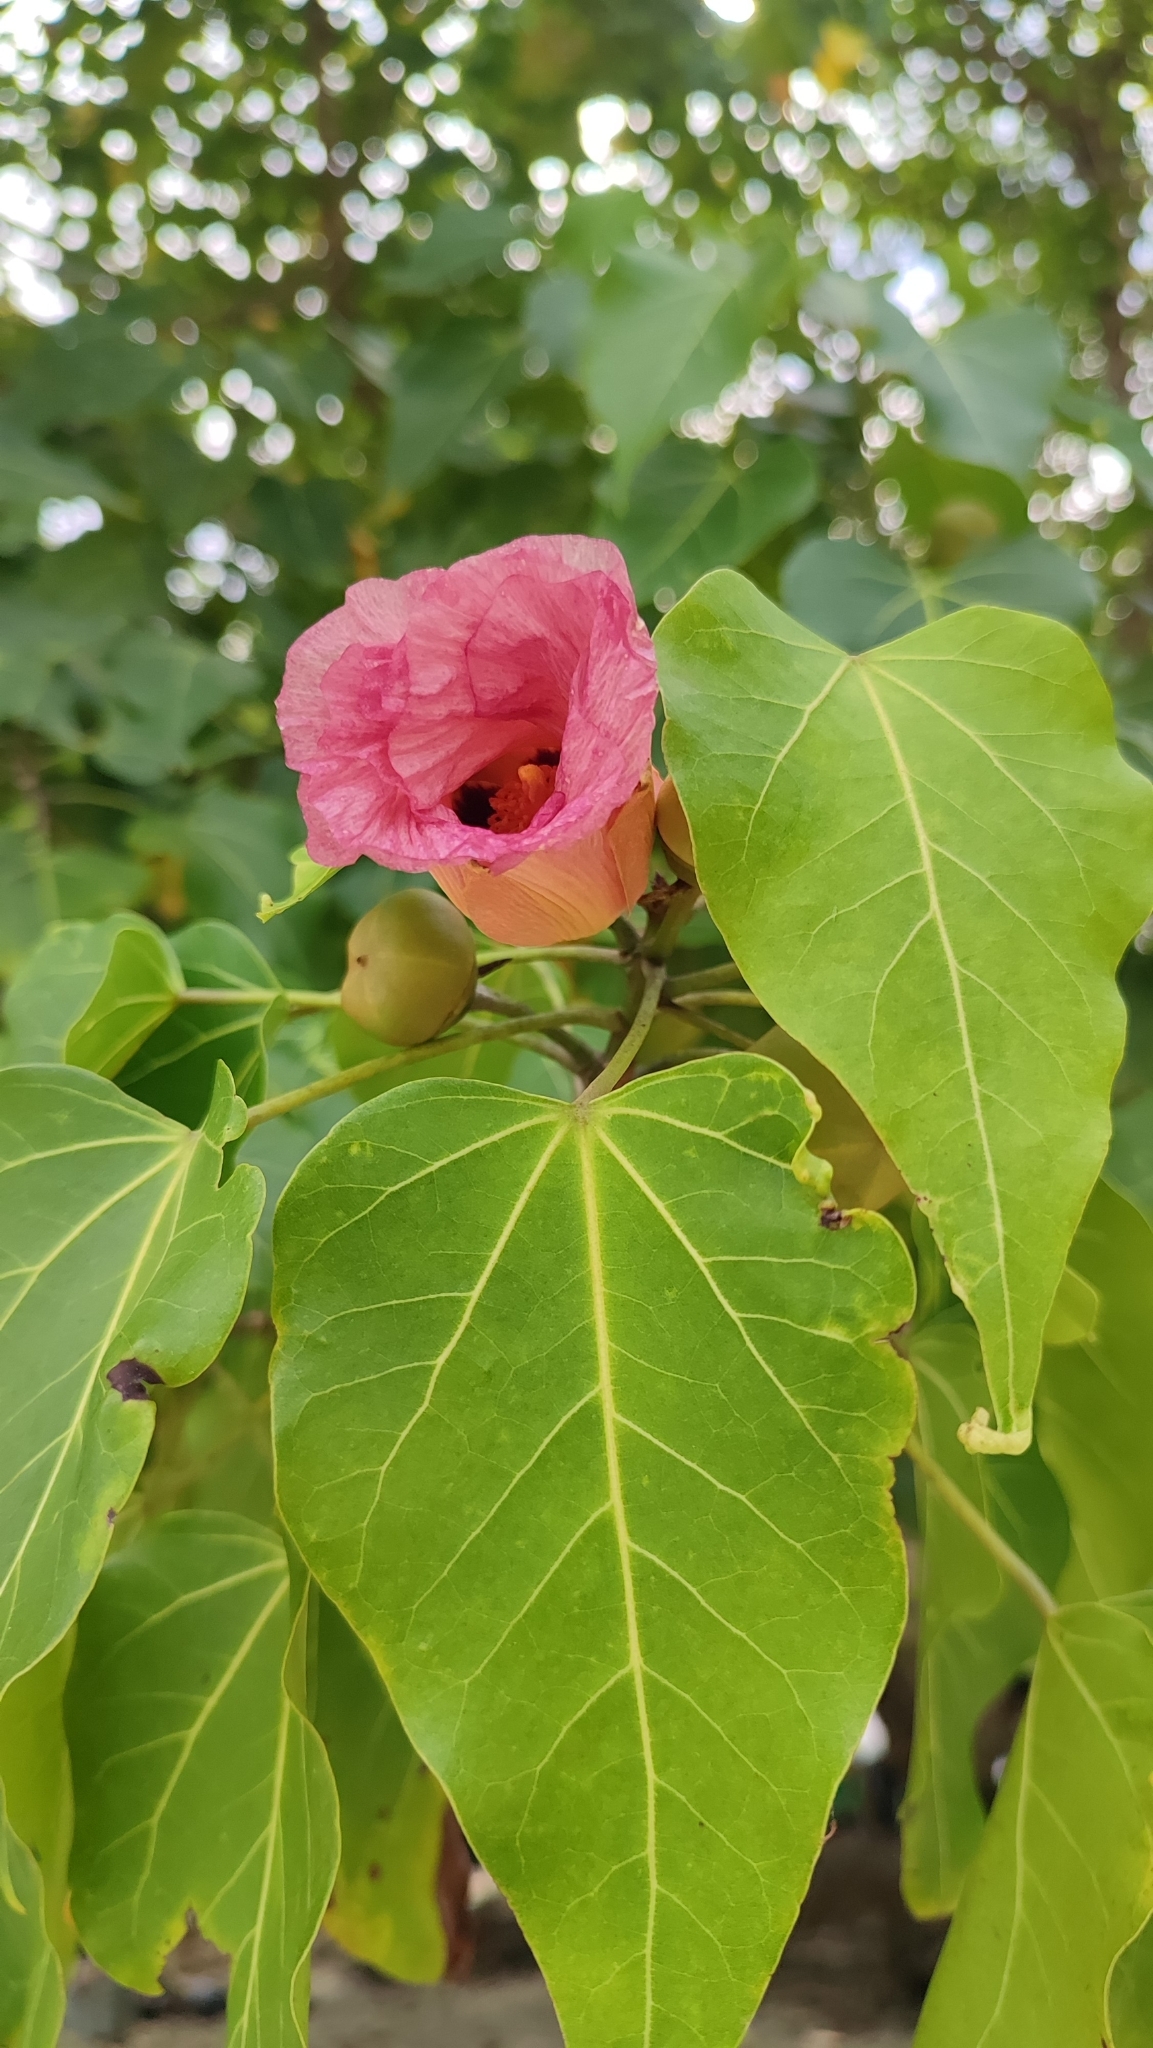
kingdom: Plantae
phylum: Tracheophyta
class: Magnoliopsida
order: Malvales
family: Malvaceae
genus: Thespesia
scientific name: Thespesia populnea
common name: Seaside mahoe
